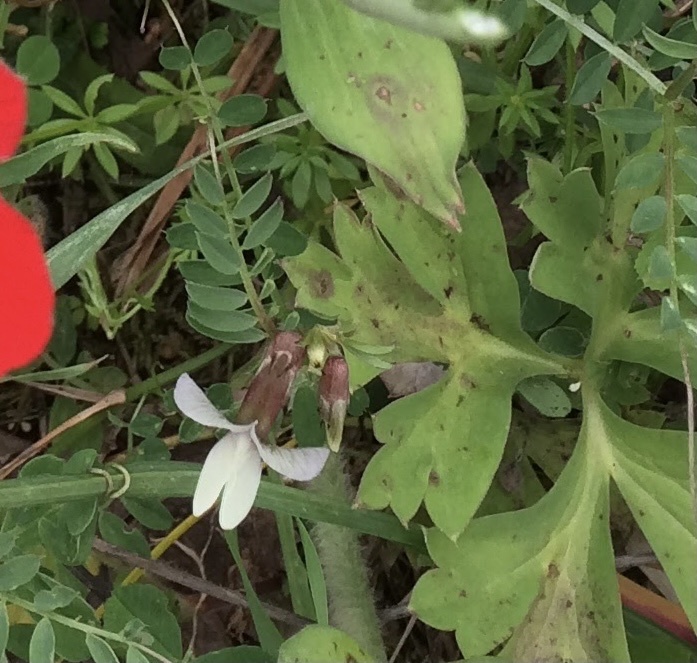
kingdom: Plantae
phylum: Tracheophyta
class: Magnoliopsida
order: Fabales
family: Fabaceae
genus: Vicia
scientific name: Vicia grandiflora
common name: Large yellow vetch
